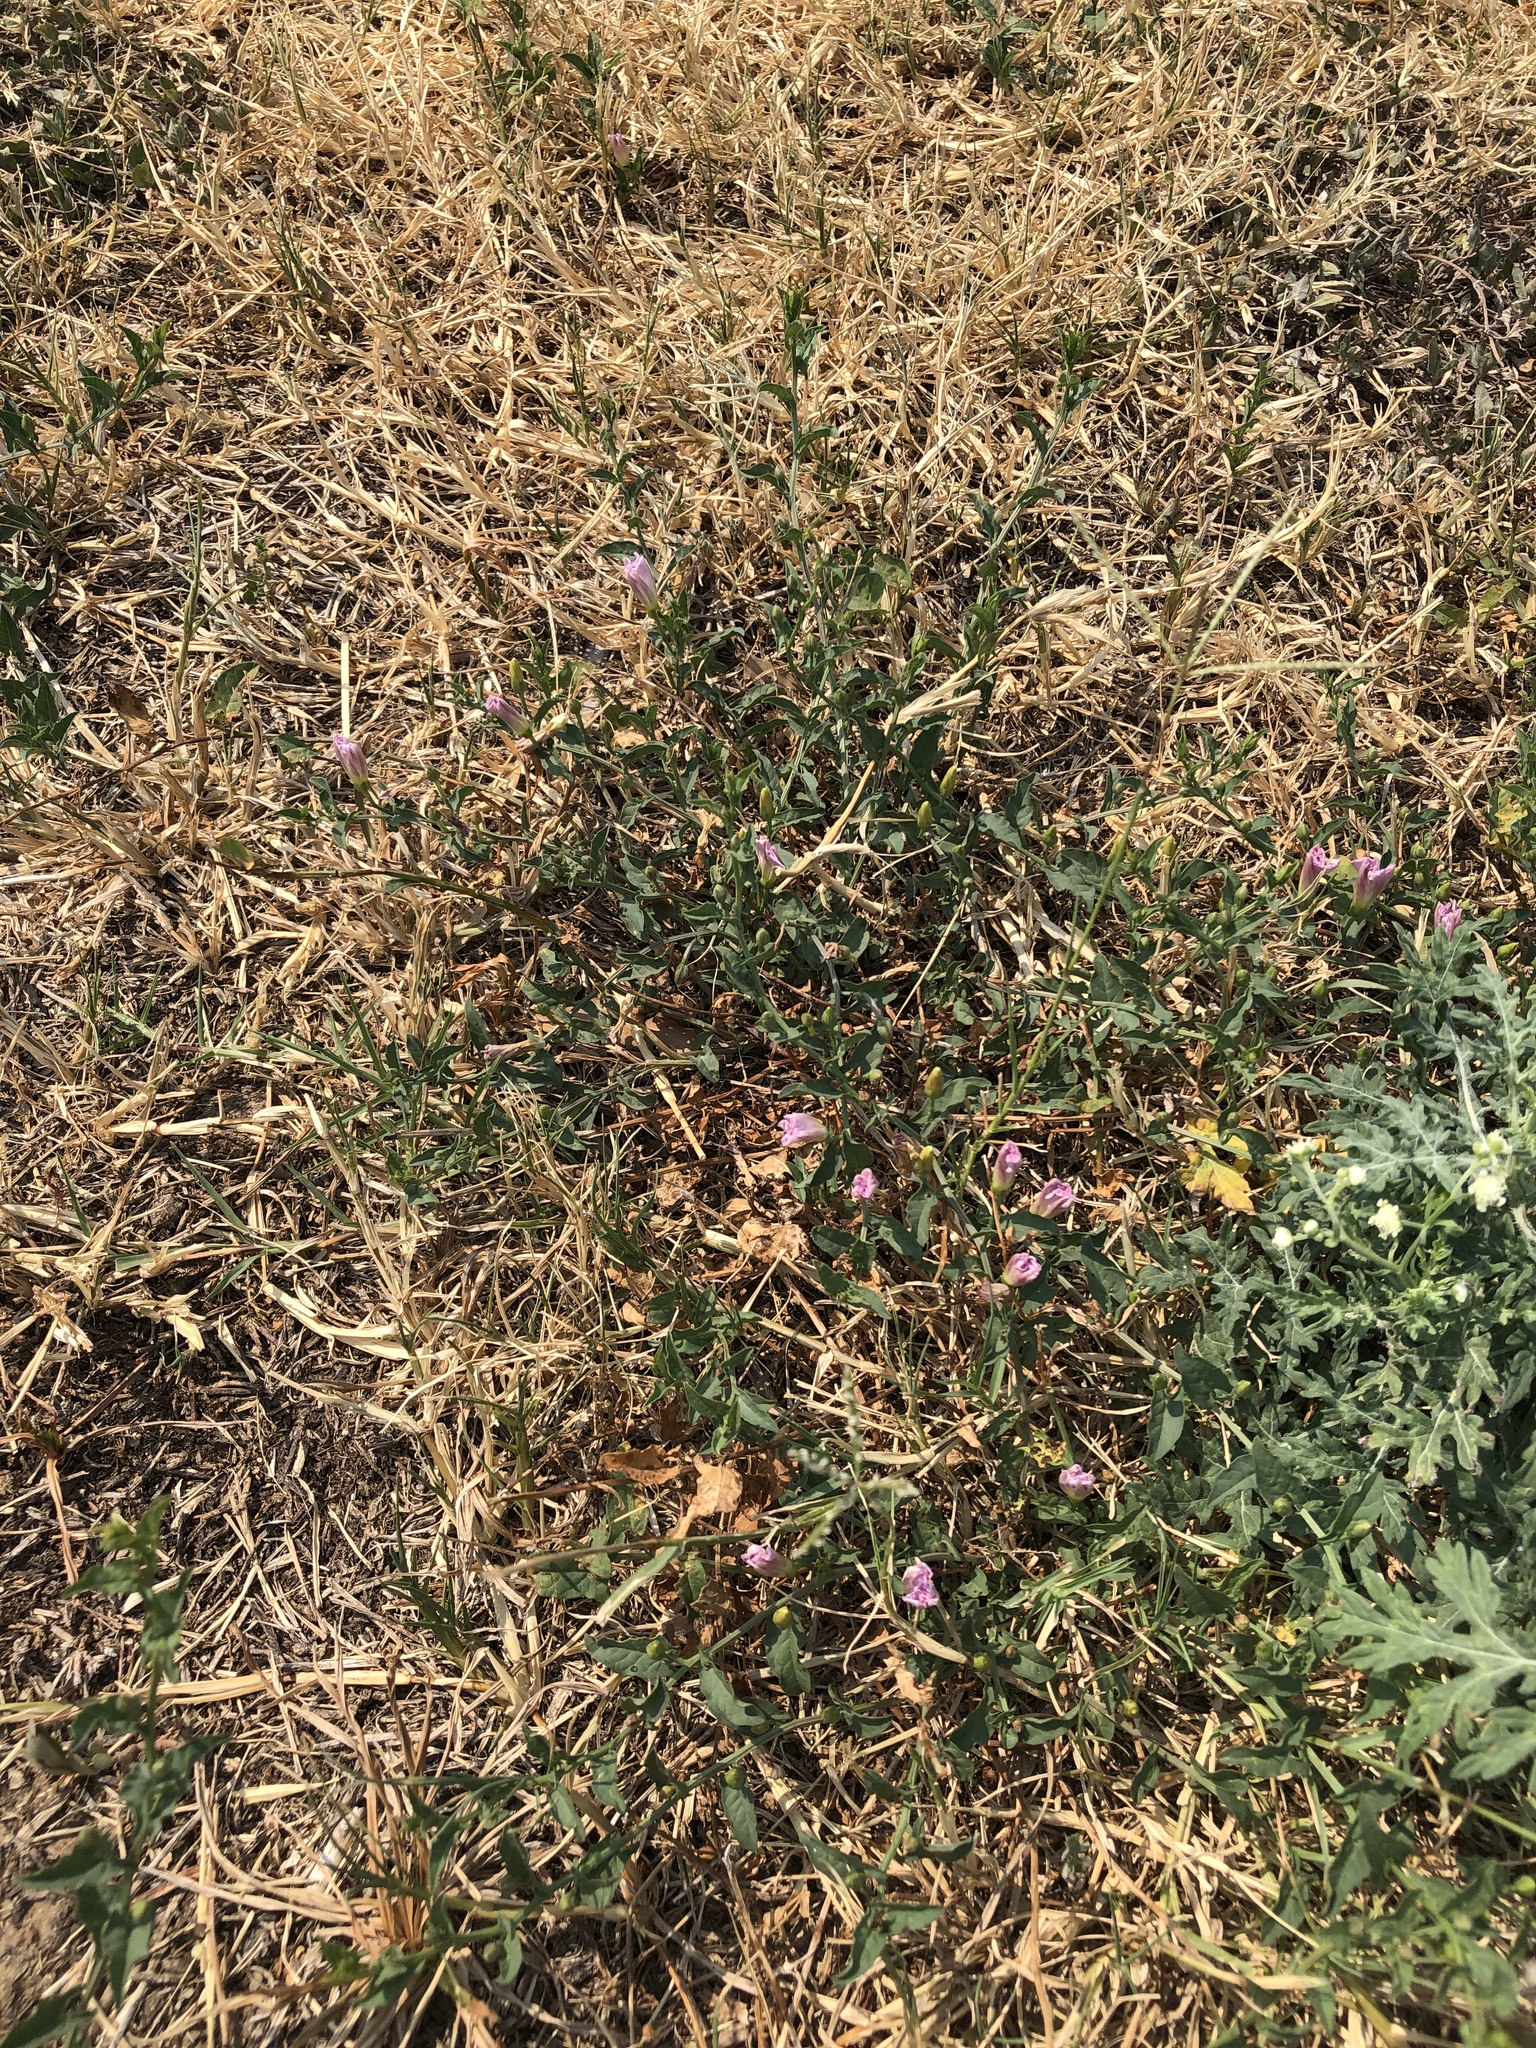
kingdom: Plantae
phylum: Tracheophyta
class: Magnoliopsida
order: Solanales
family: Convolvulaceae
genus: Convolvulus
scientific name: Convolvulus arvensis
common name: Field bindweed
